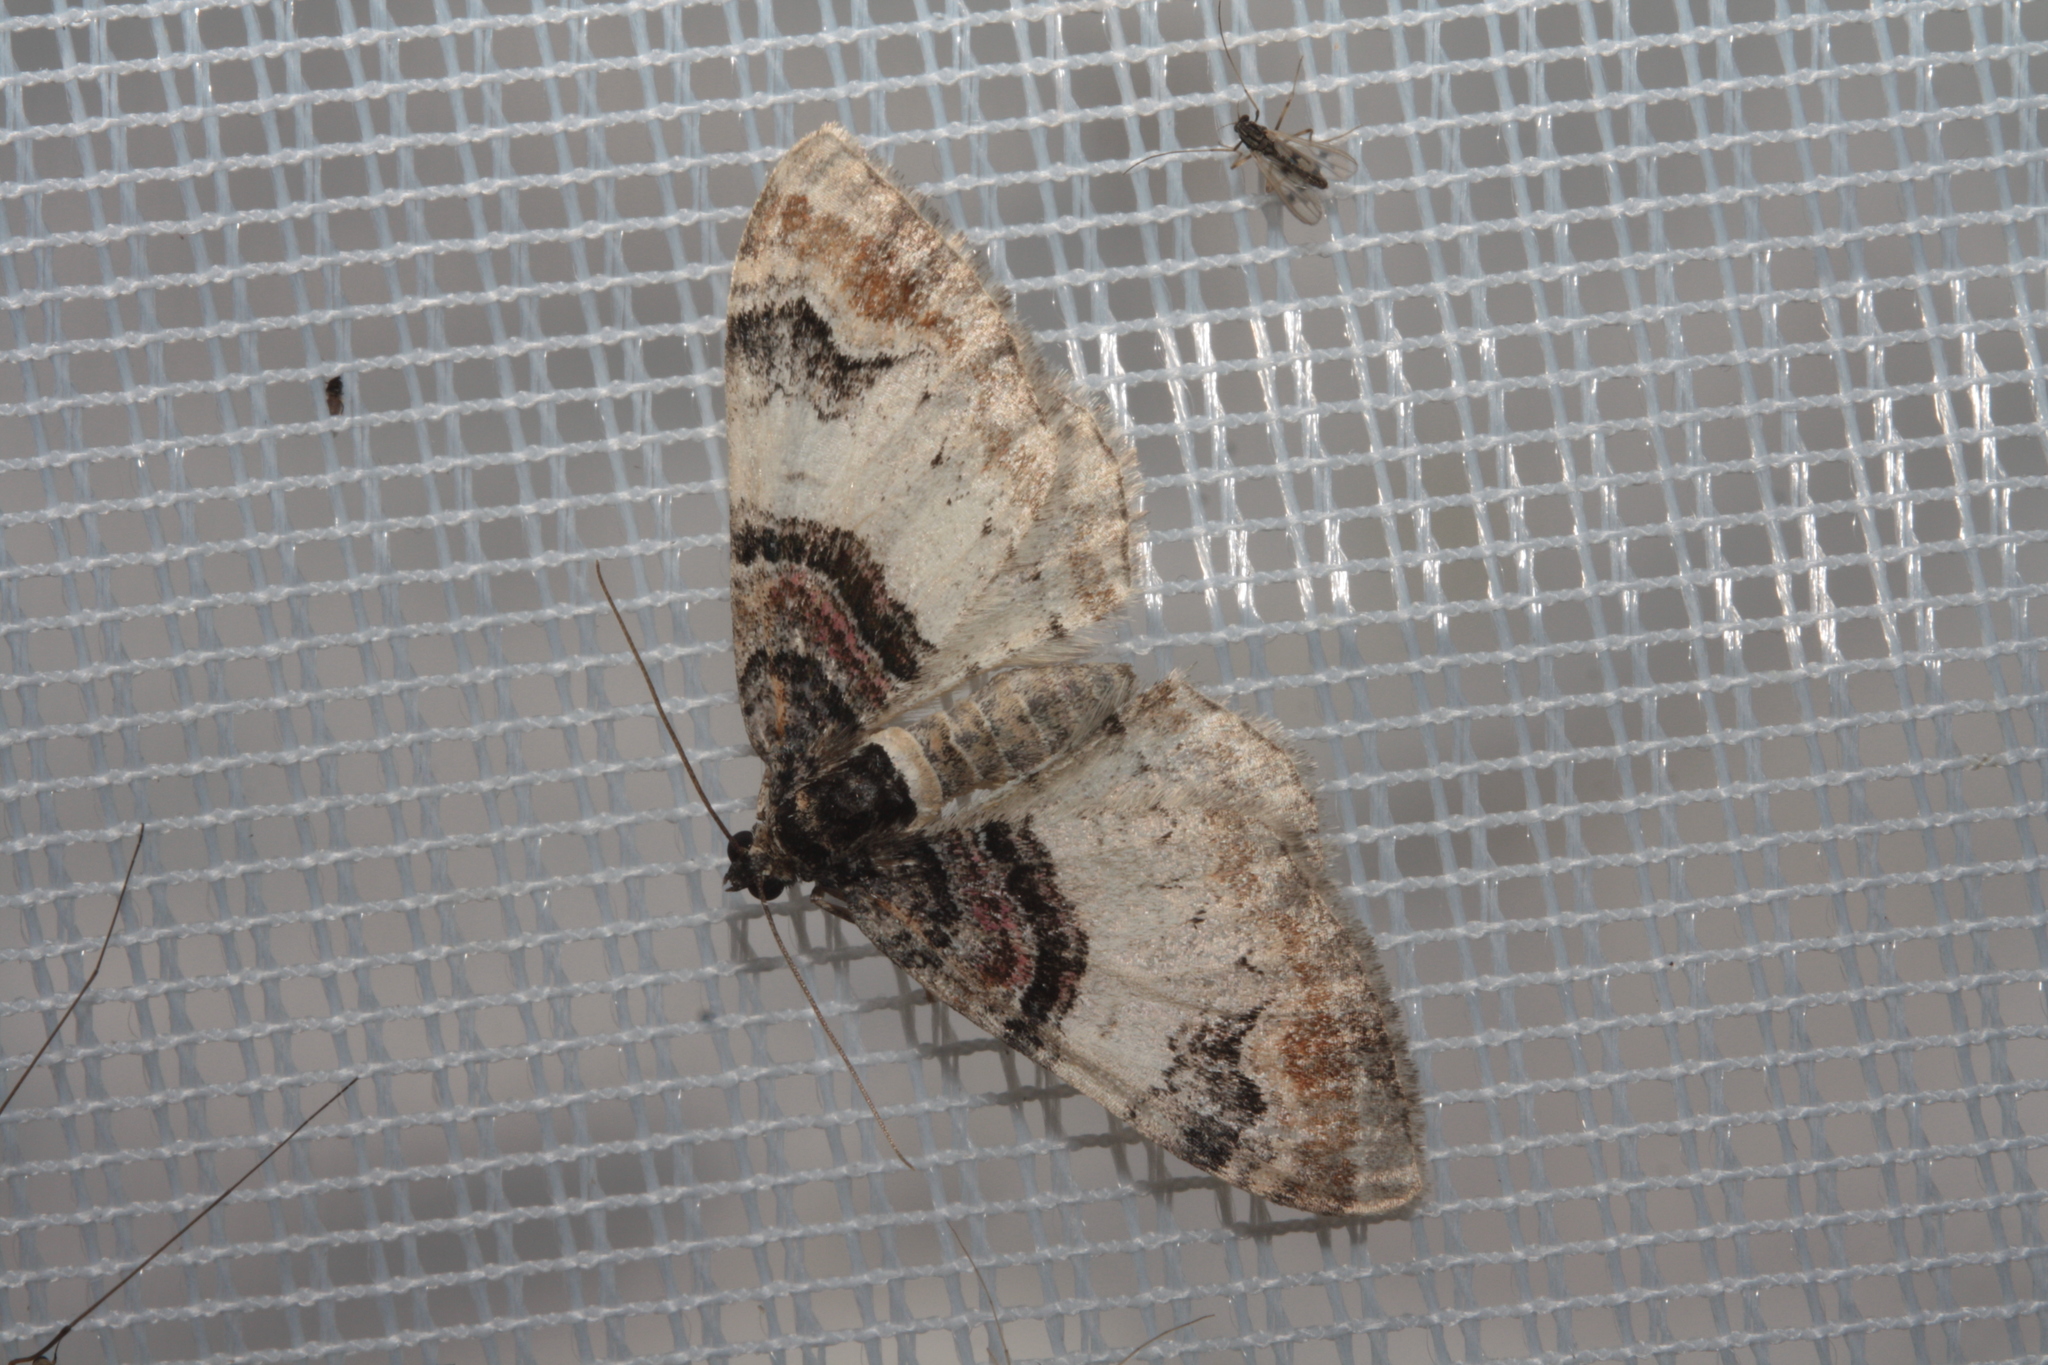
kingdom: Animalia
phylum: Arthropoda
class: Insecta
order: Lepidoptera
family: Geometridae
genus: Catarhoe
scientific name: Catarhoe cuculata
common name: Royal mantle
